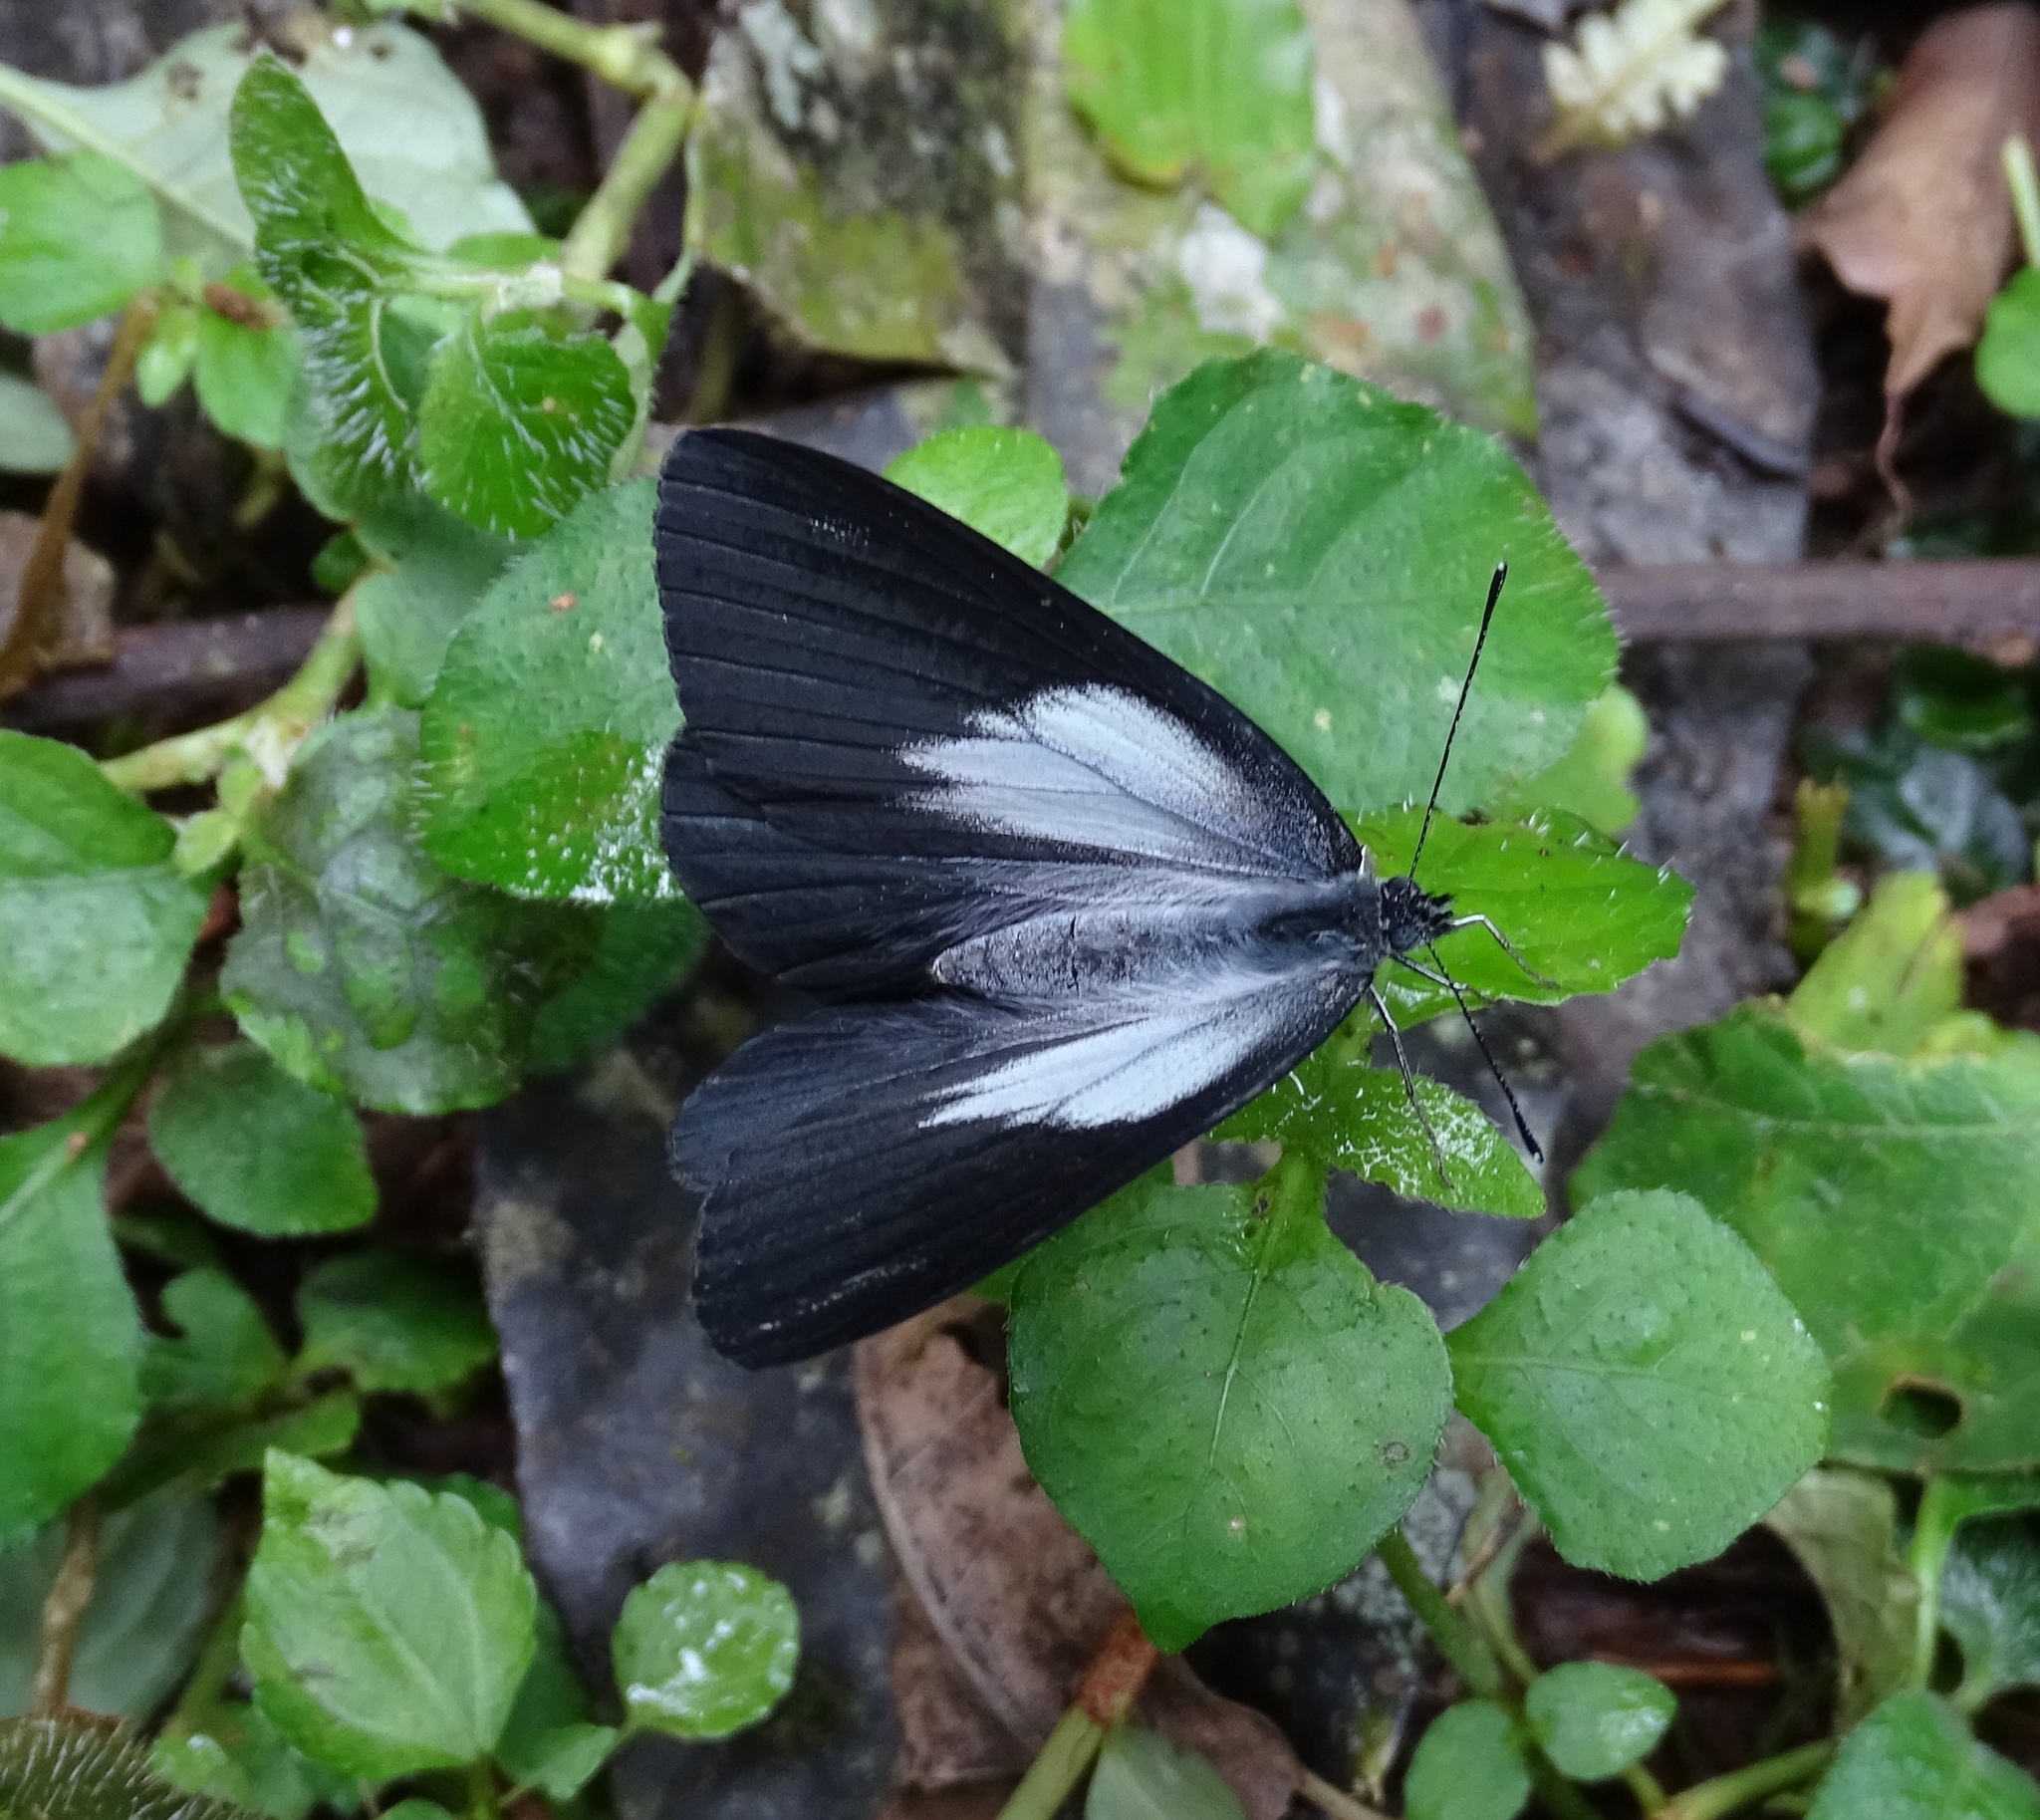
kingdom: Animalia
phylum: Arthropoda
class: Insecta
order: Lepidoptera
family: Pieridae
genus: Belenois
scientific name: Belenois raffrayi
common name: Raffray’s white
